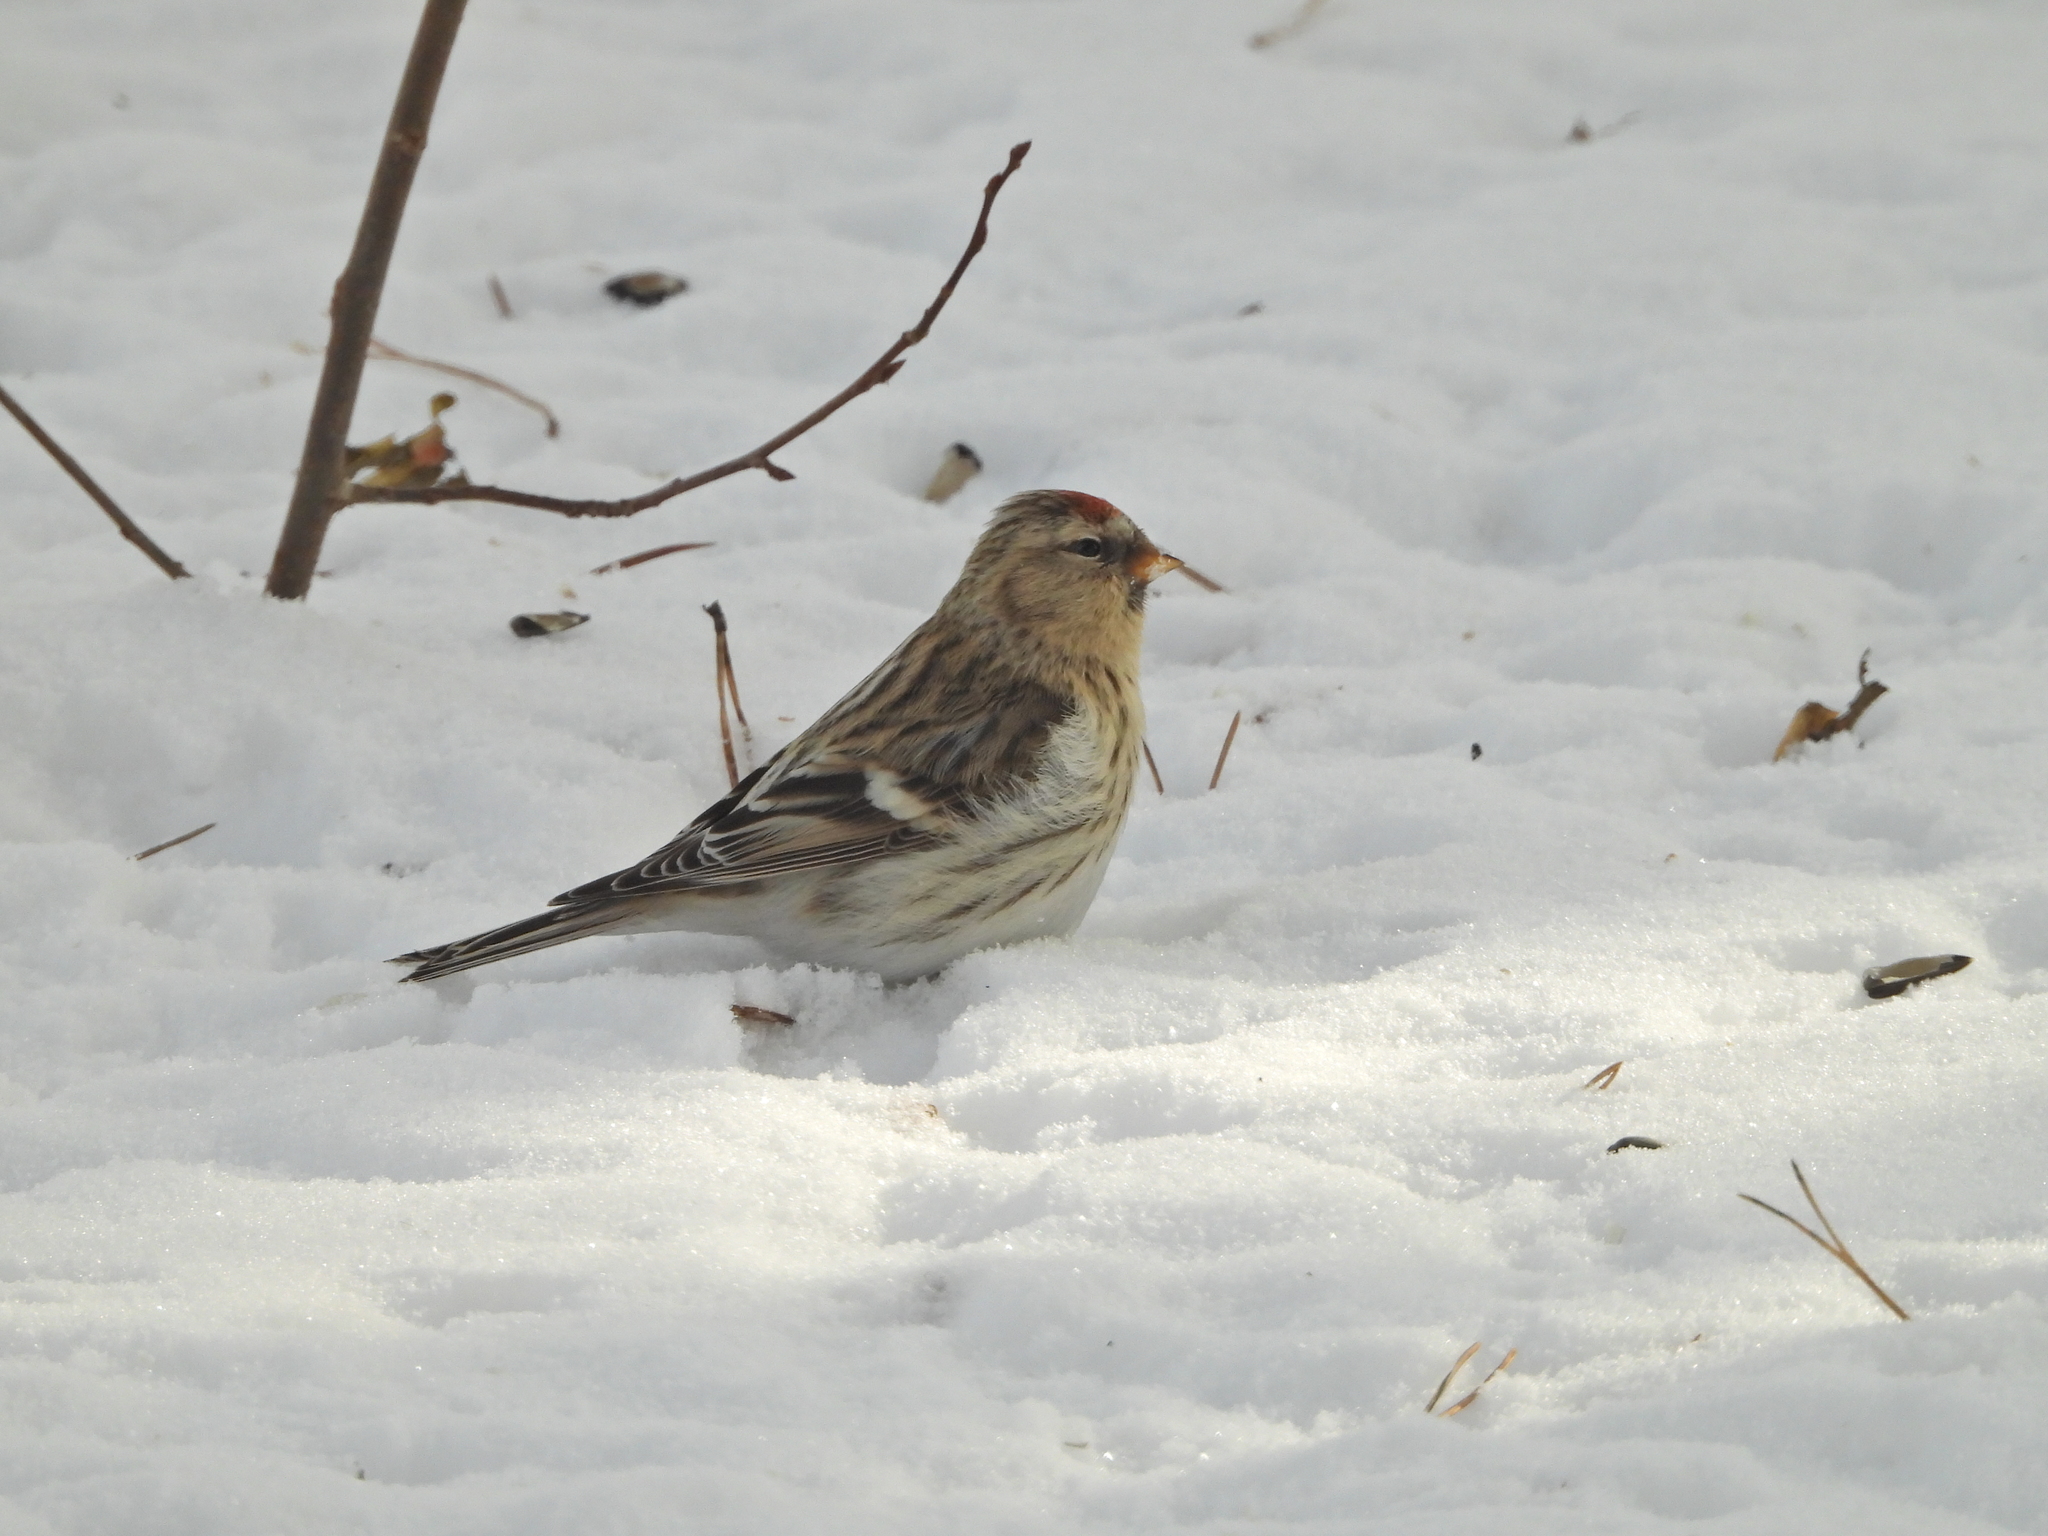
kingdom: Animalia
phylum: Chordata
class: Aves
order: Passeriformes
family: Fringillidae
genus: Acanthis
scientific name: Acanthis flammea
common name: Common redpoll
